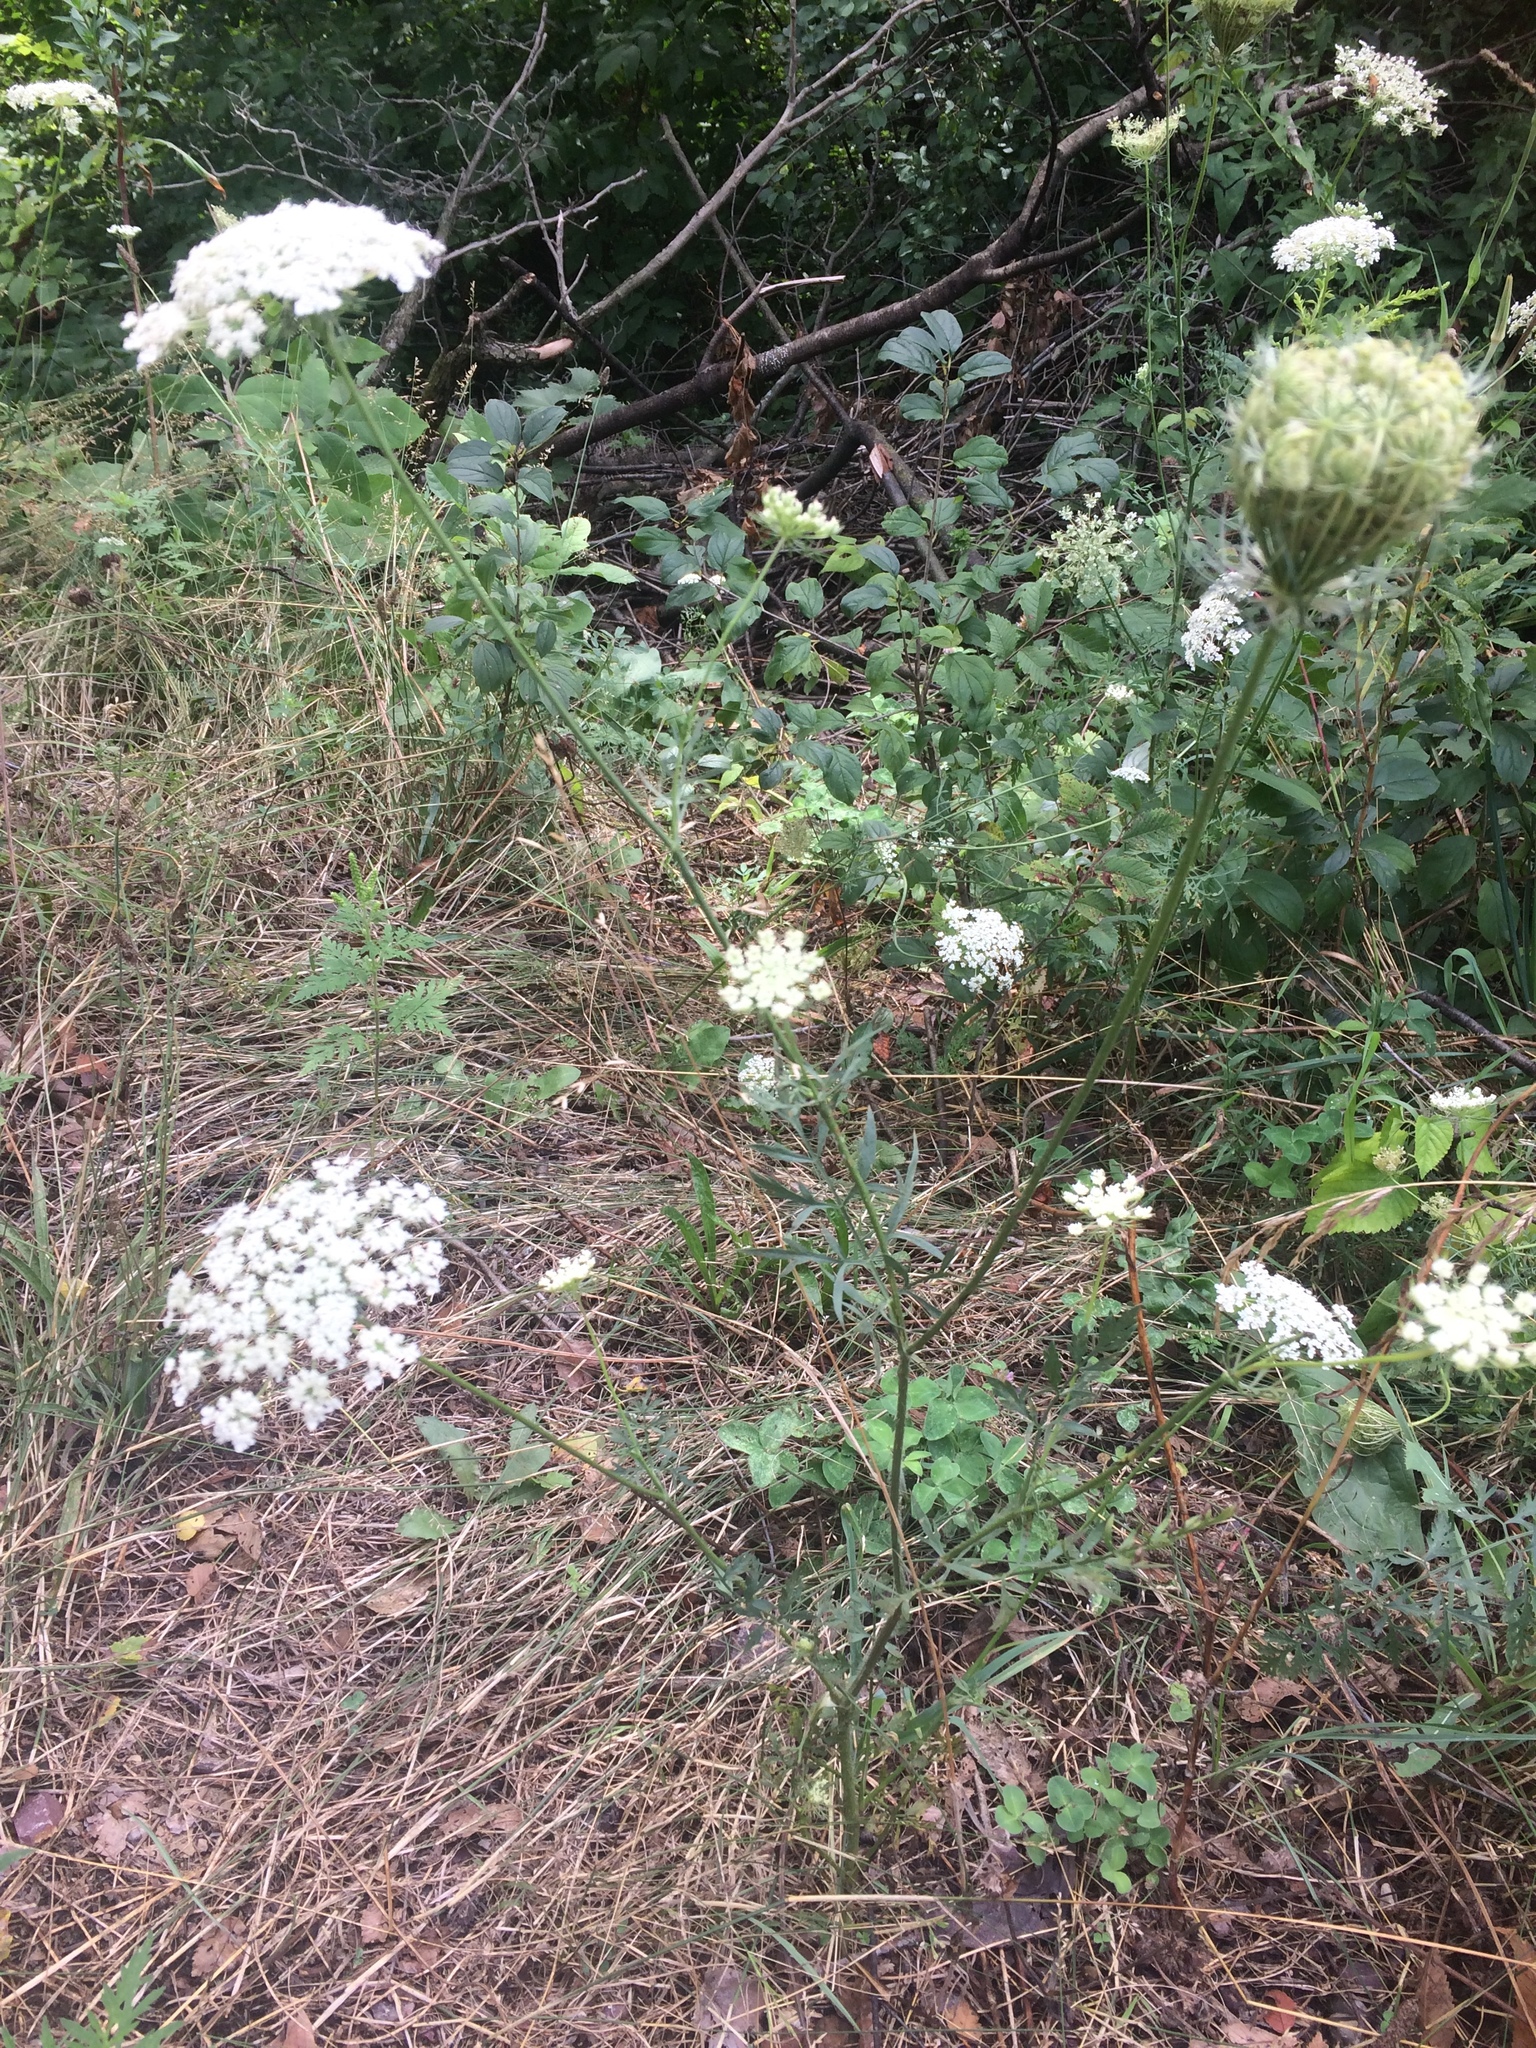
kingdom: Plantae
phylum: Tracheophyta
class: Magnoliopsida
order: Apiales
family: Apiaceae
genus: Daucus
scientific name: Daucus carota
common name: Wild carrot
